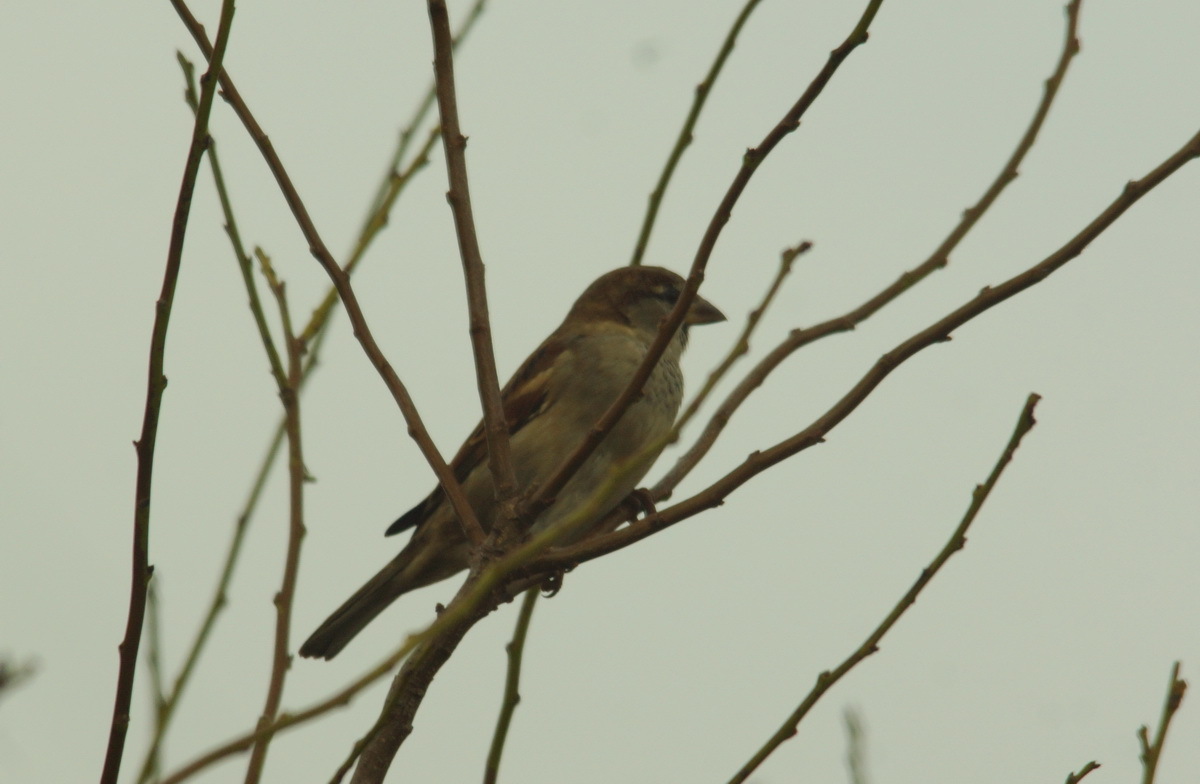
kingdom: Animalia
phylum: Chordata
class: Aves
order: Passeriformes
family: Passeridae
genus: Passer
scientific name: Passer domesticus
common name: House sparrow
